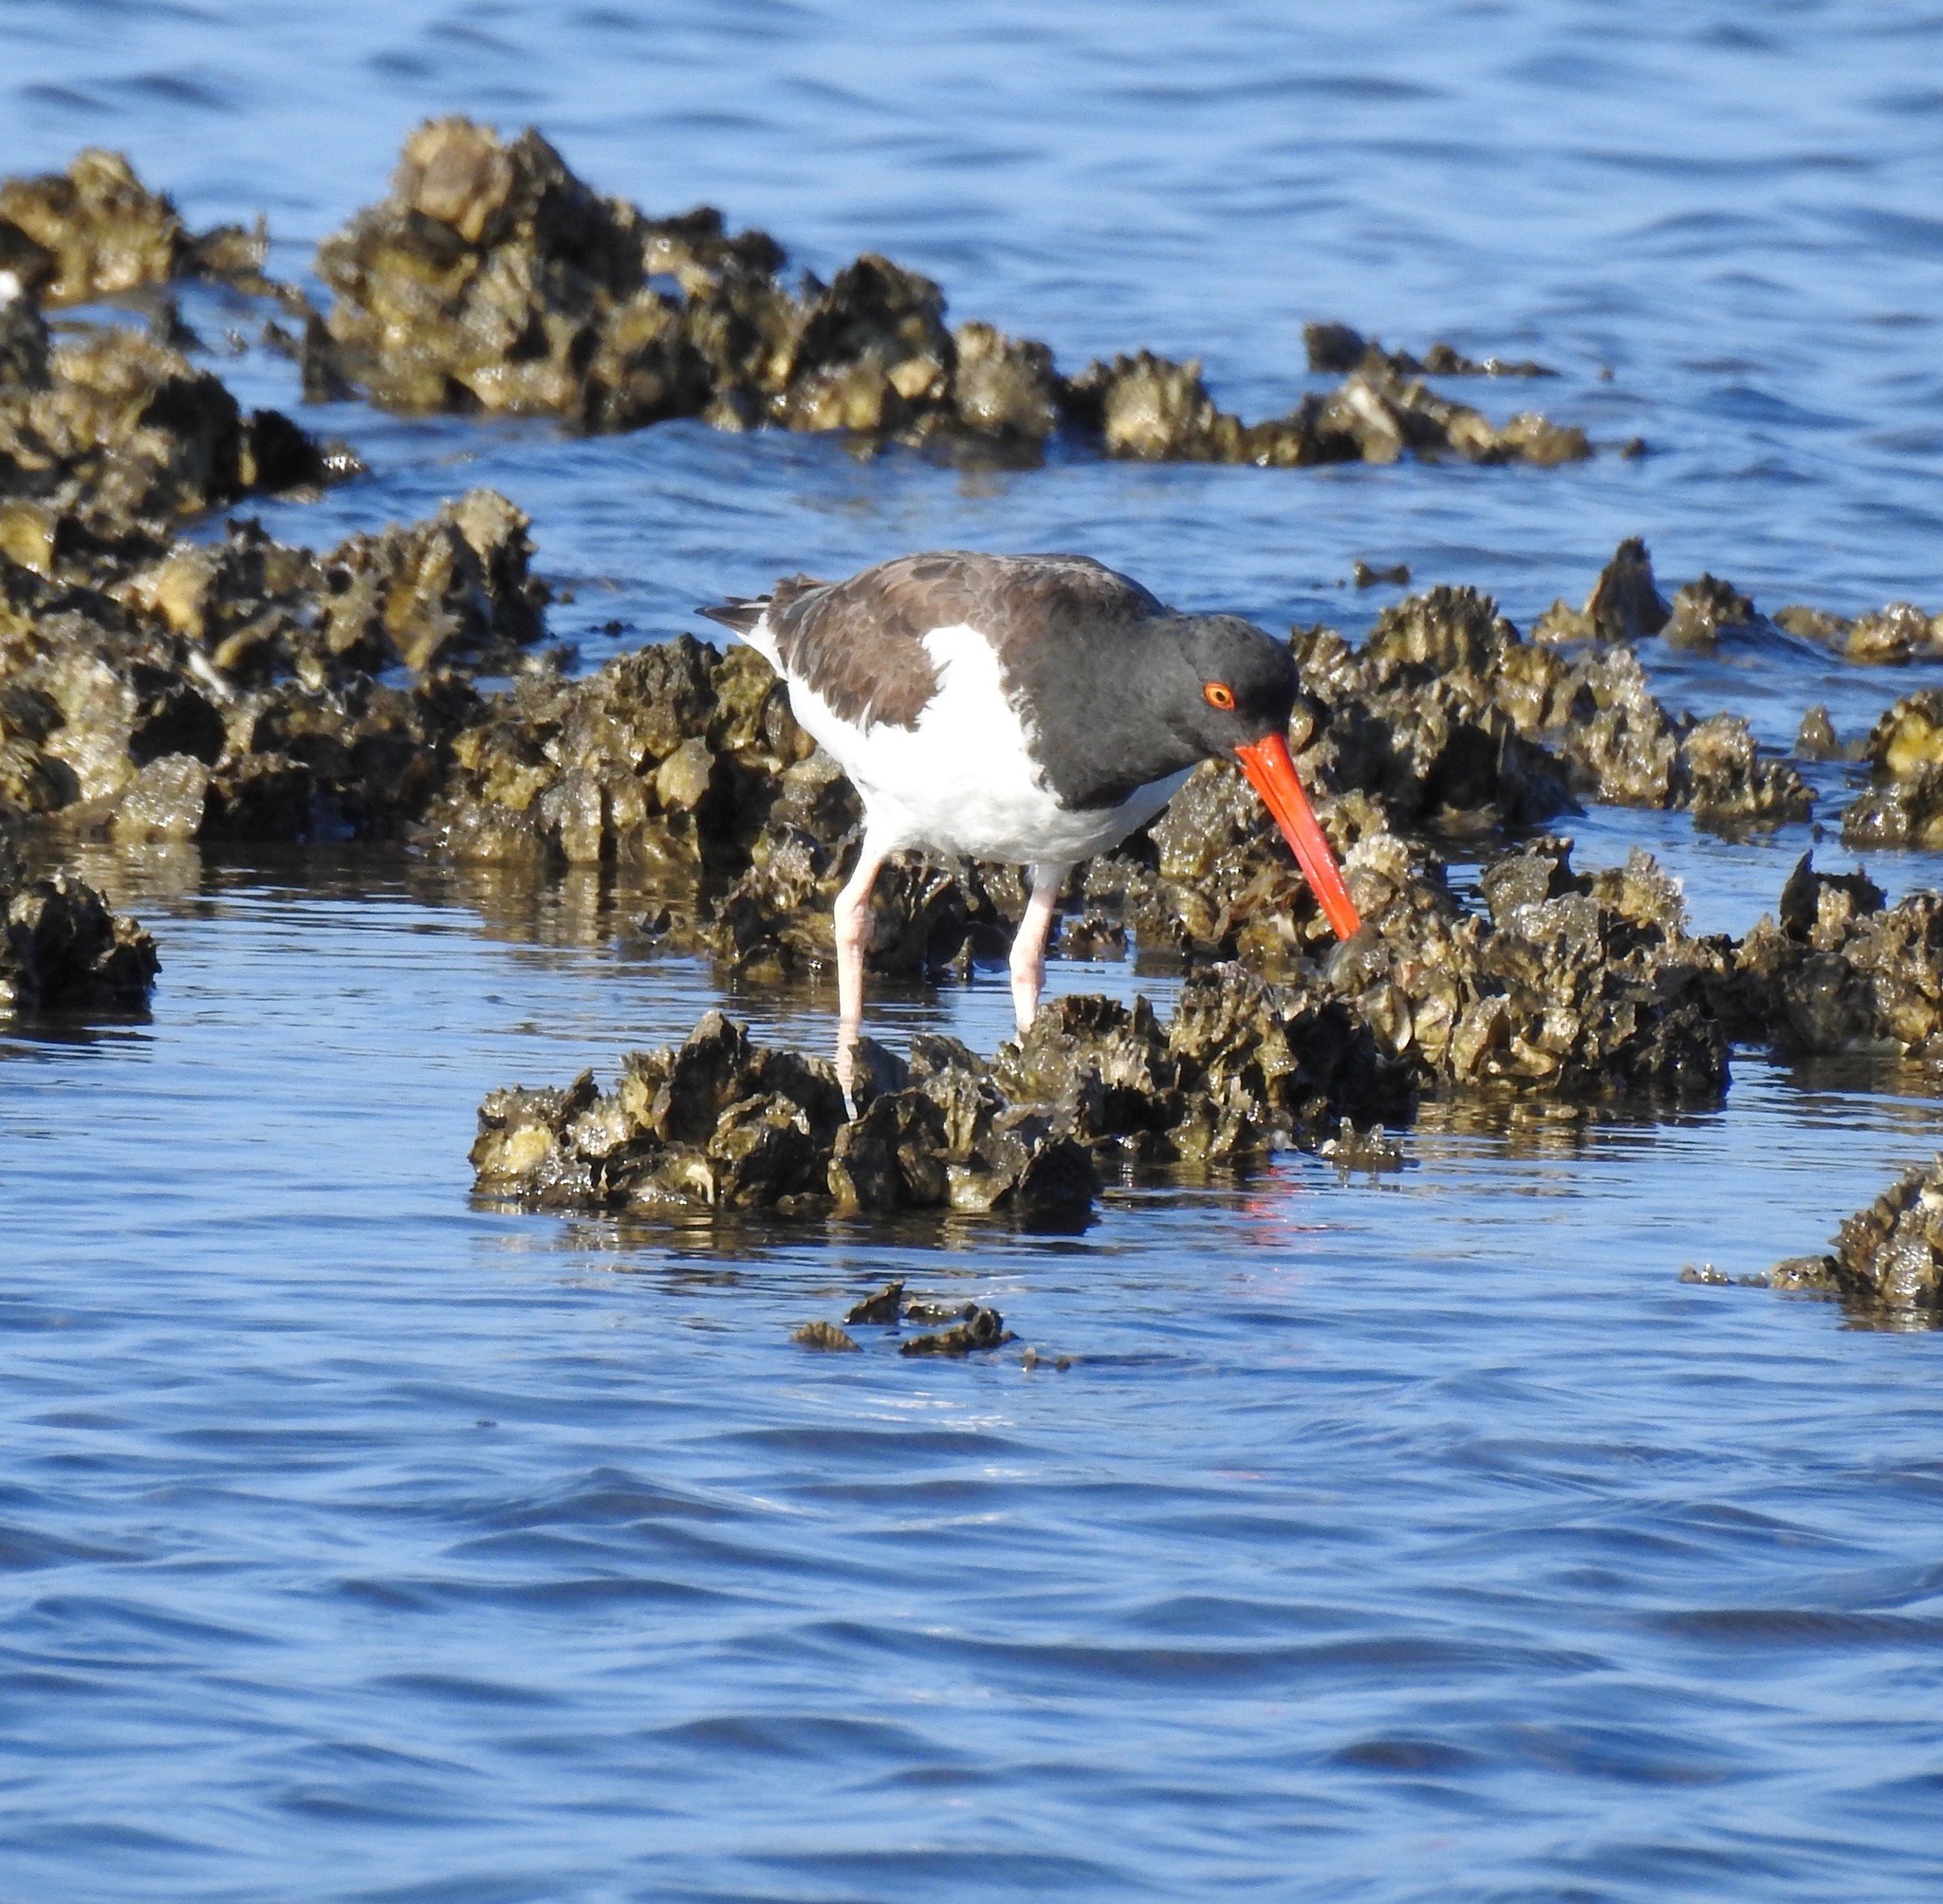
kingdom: Animalia
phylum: Chordata
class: Aves
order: Charadriiformes
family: Haematopodidae
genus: Haematopus
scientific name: Haematopus palliatus
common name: American oystercatcher
